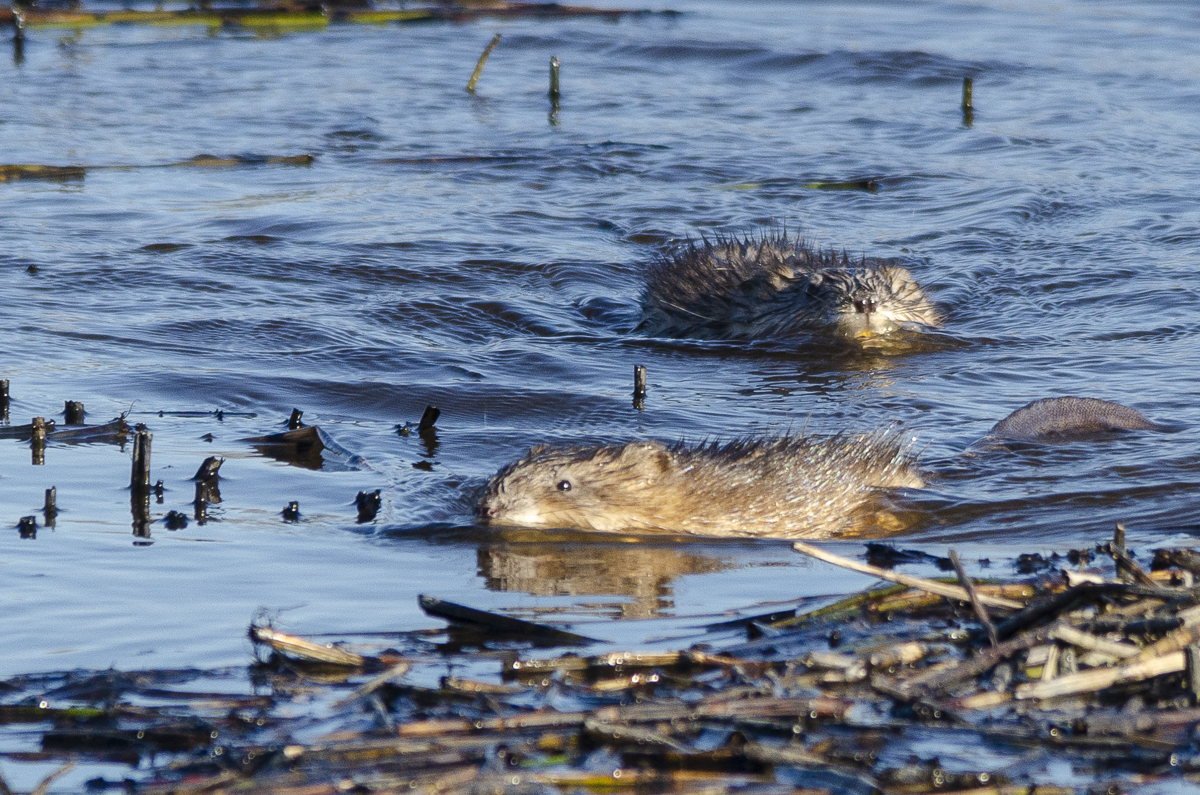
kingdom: Animalia
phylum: Chordata
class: Mammalia
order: Rodentia
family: Cricetidae
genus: Ondatra
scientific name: Ondatra zibethicus
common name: Muskrat
